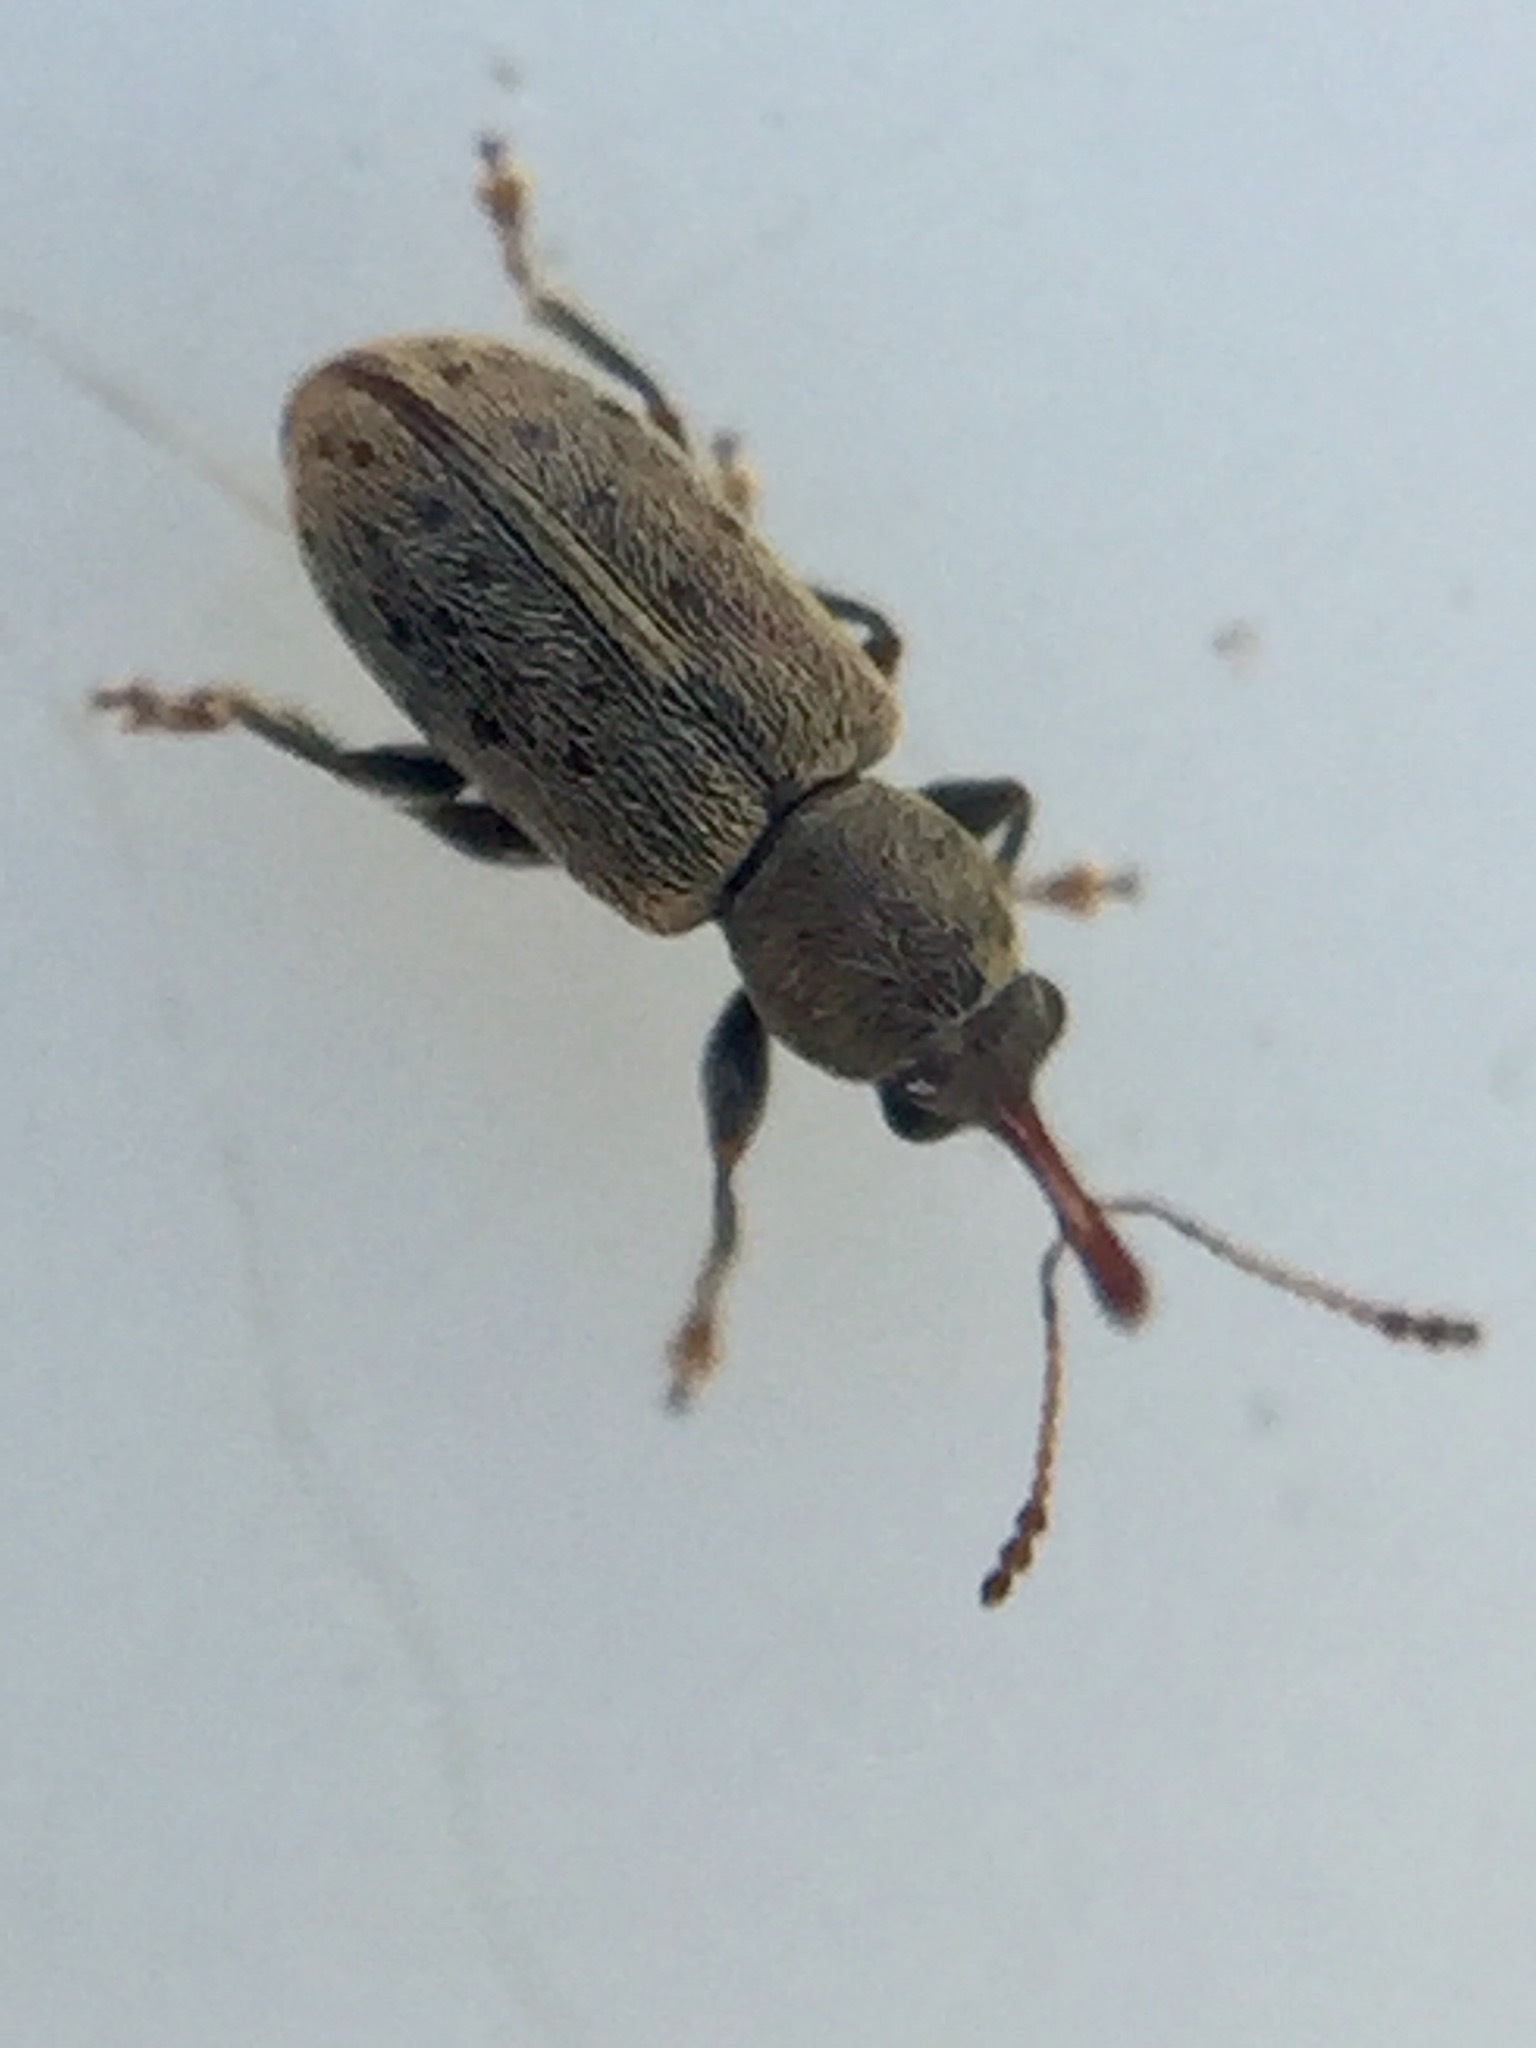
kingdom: Animalia
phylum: Arthropoda
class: Insecta
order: Coleoptera
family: Nemonychidae
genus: Rhinorhynchus
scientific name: Rhinorhynchus rufulus
